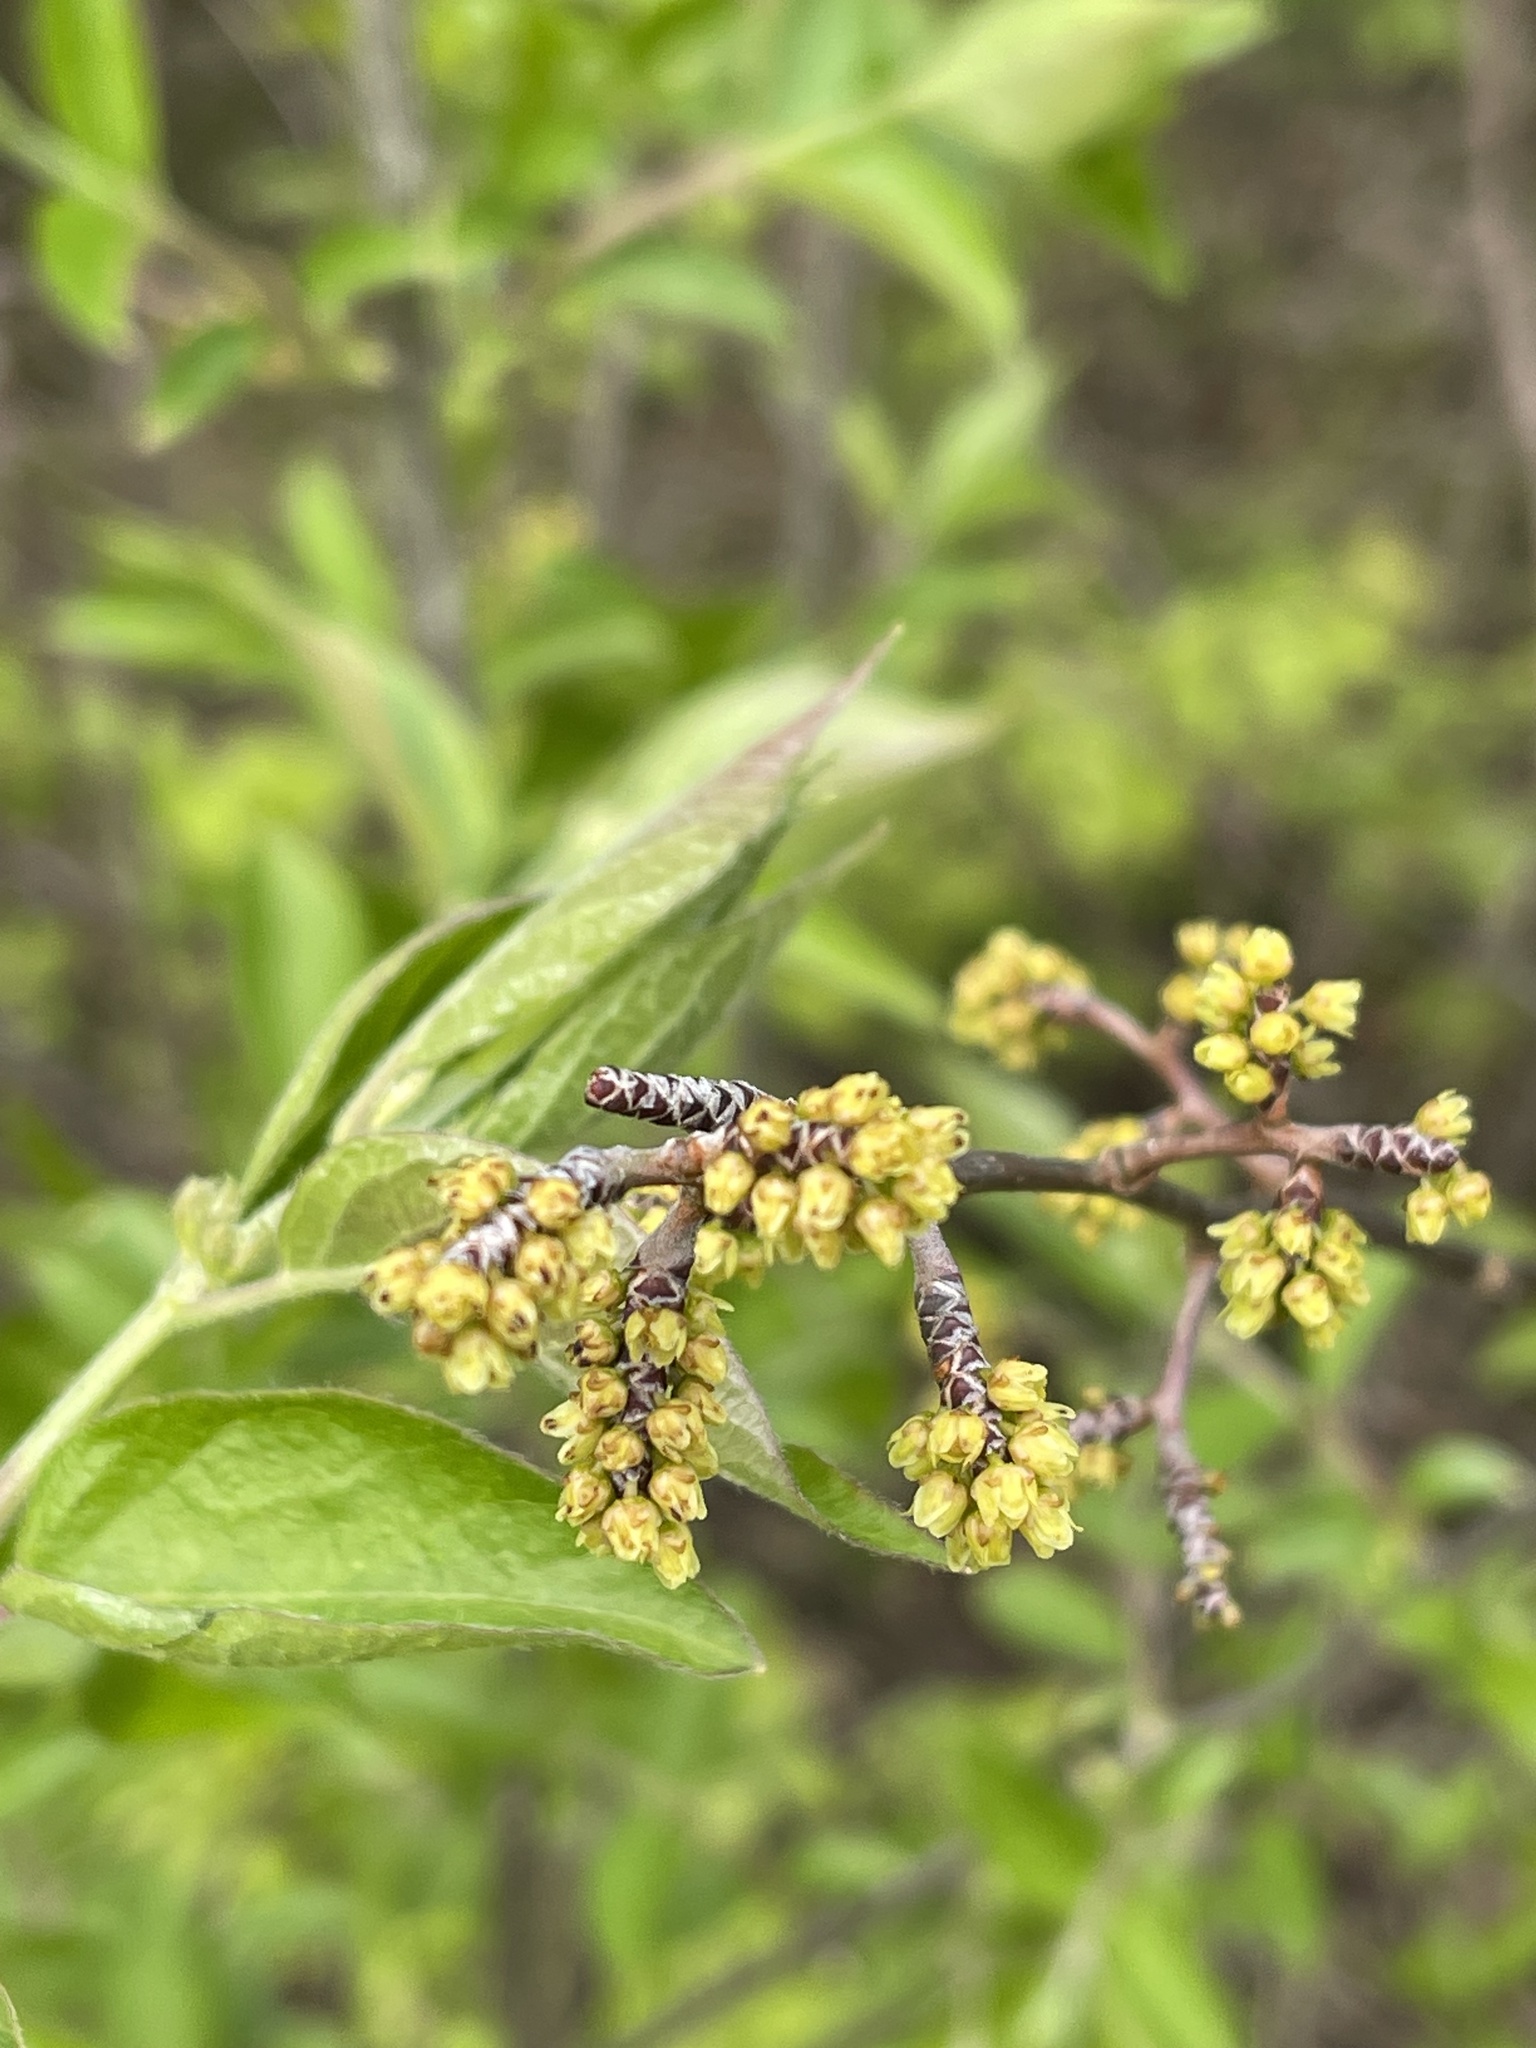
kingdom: Plantae
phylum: Tracheophyta
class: Magnoliopsida
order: Sapindales
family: Anacardiaceae
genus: Rhus
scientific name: Rhus aromatica
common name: Aromatic sumac
